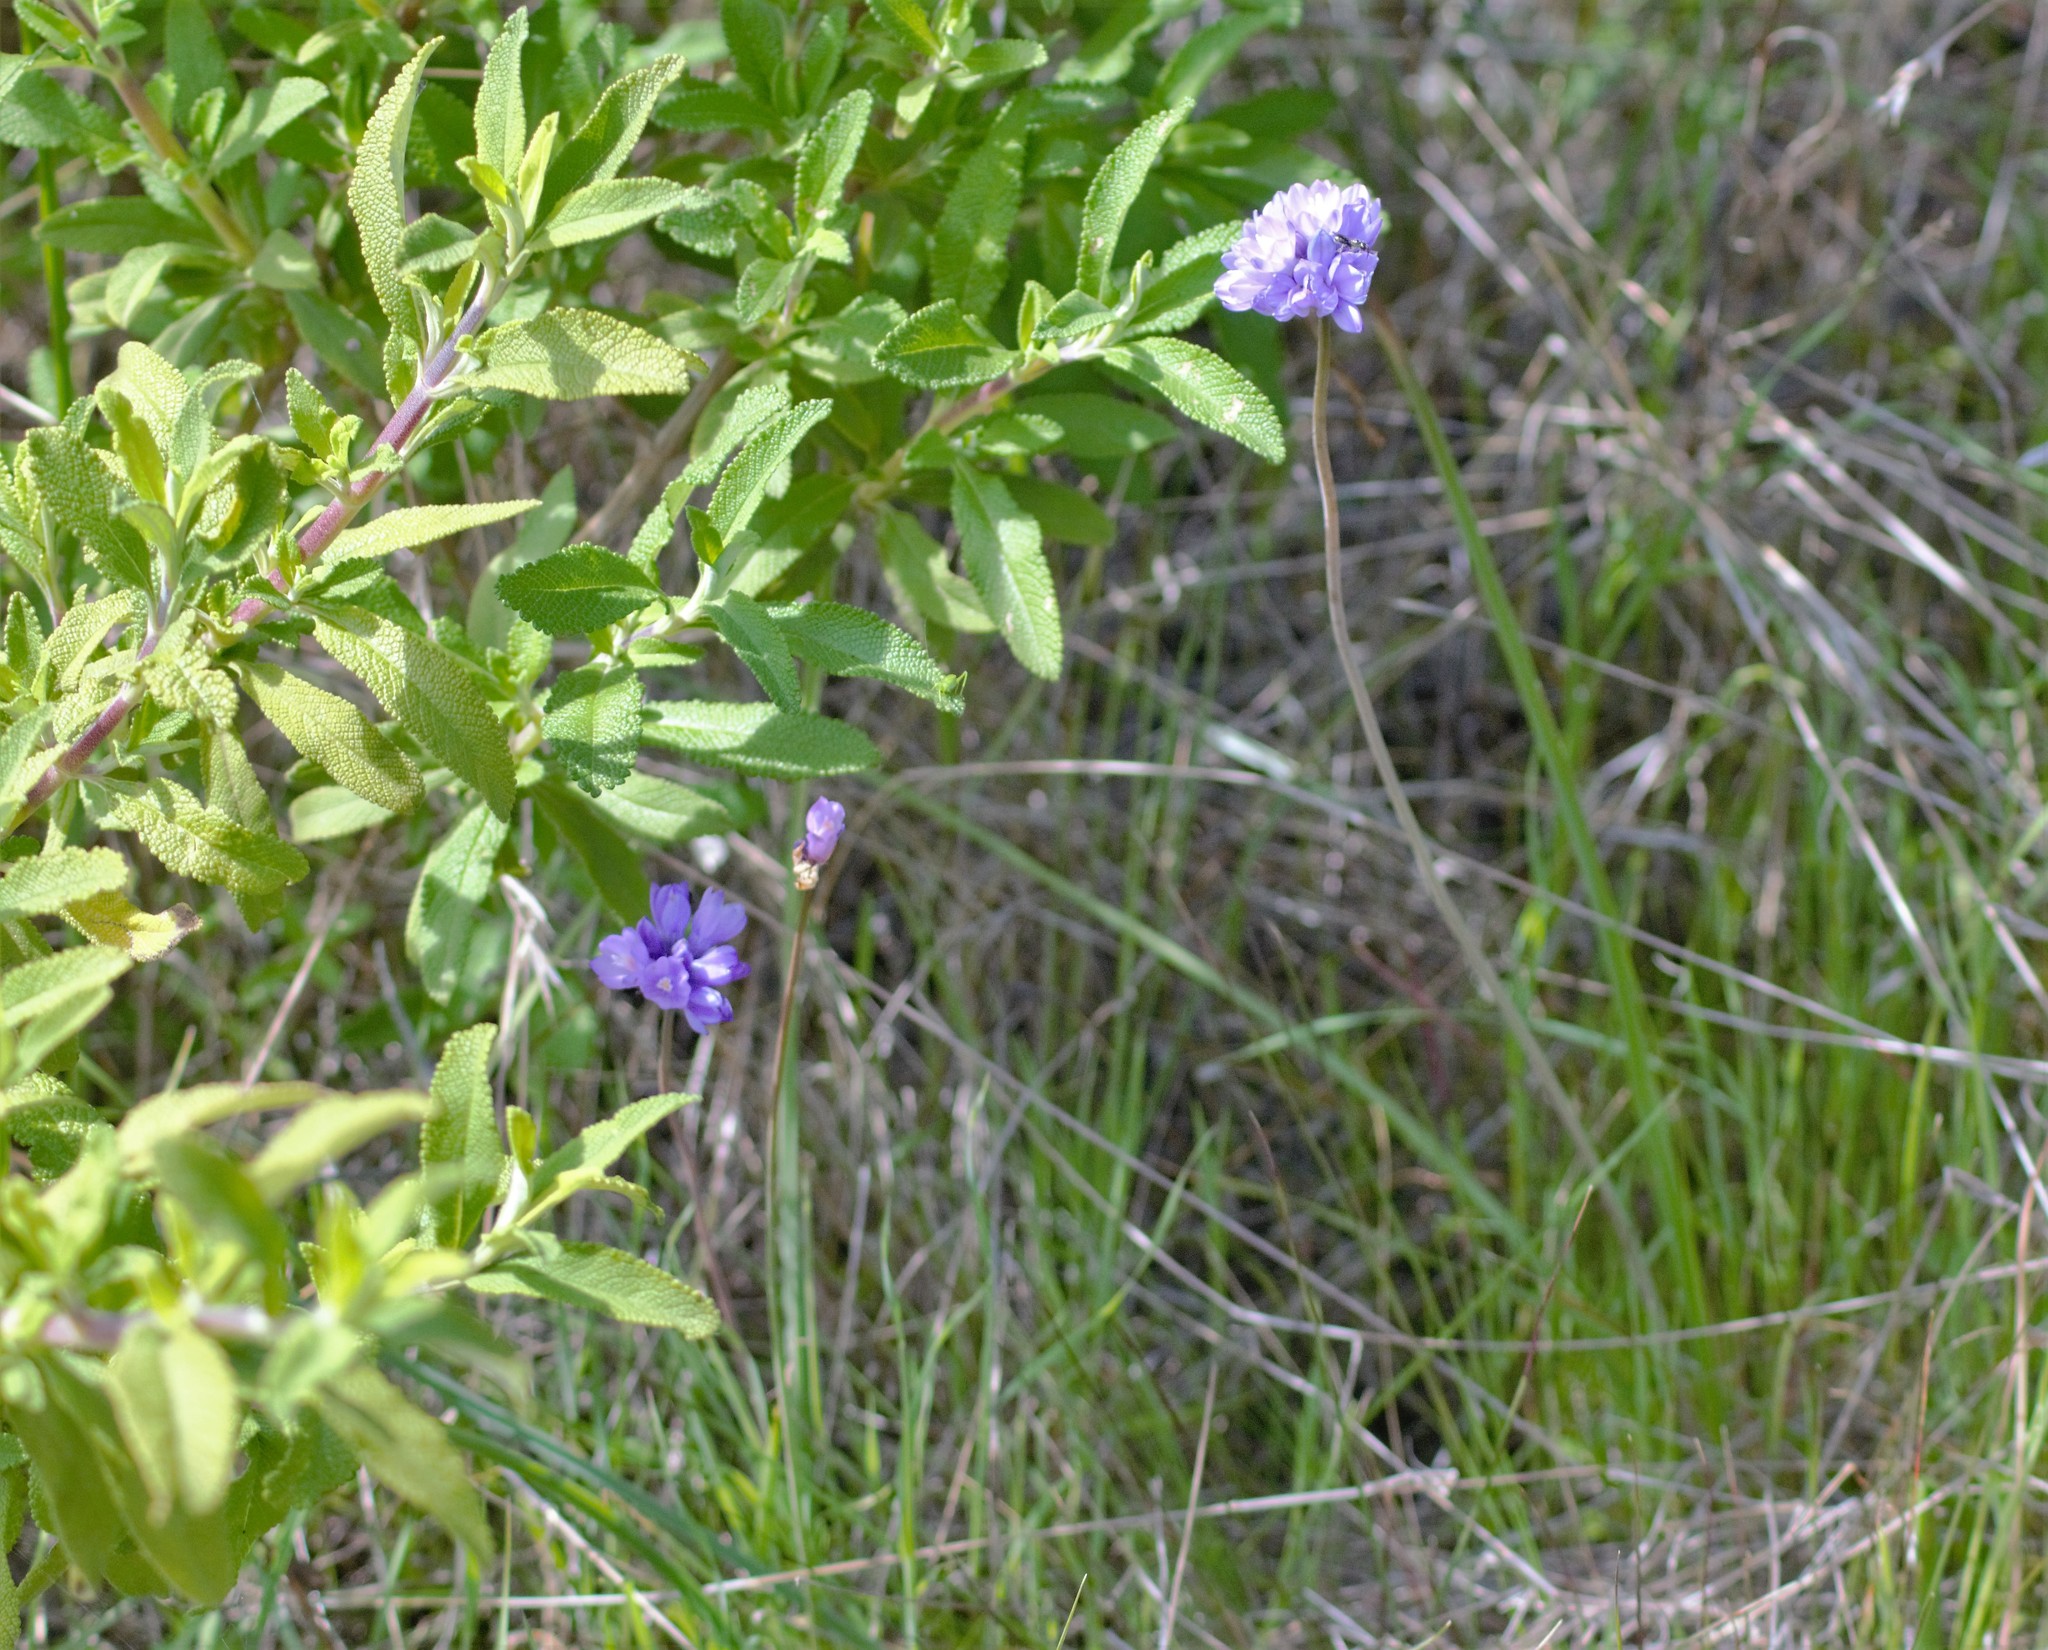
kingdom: Plantae
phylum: Tracheophyta
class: Liliopsida
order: Asparagales
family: Asparagaceae
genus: Dipterostemon
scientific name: Dipterostemon capitatus
